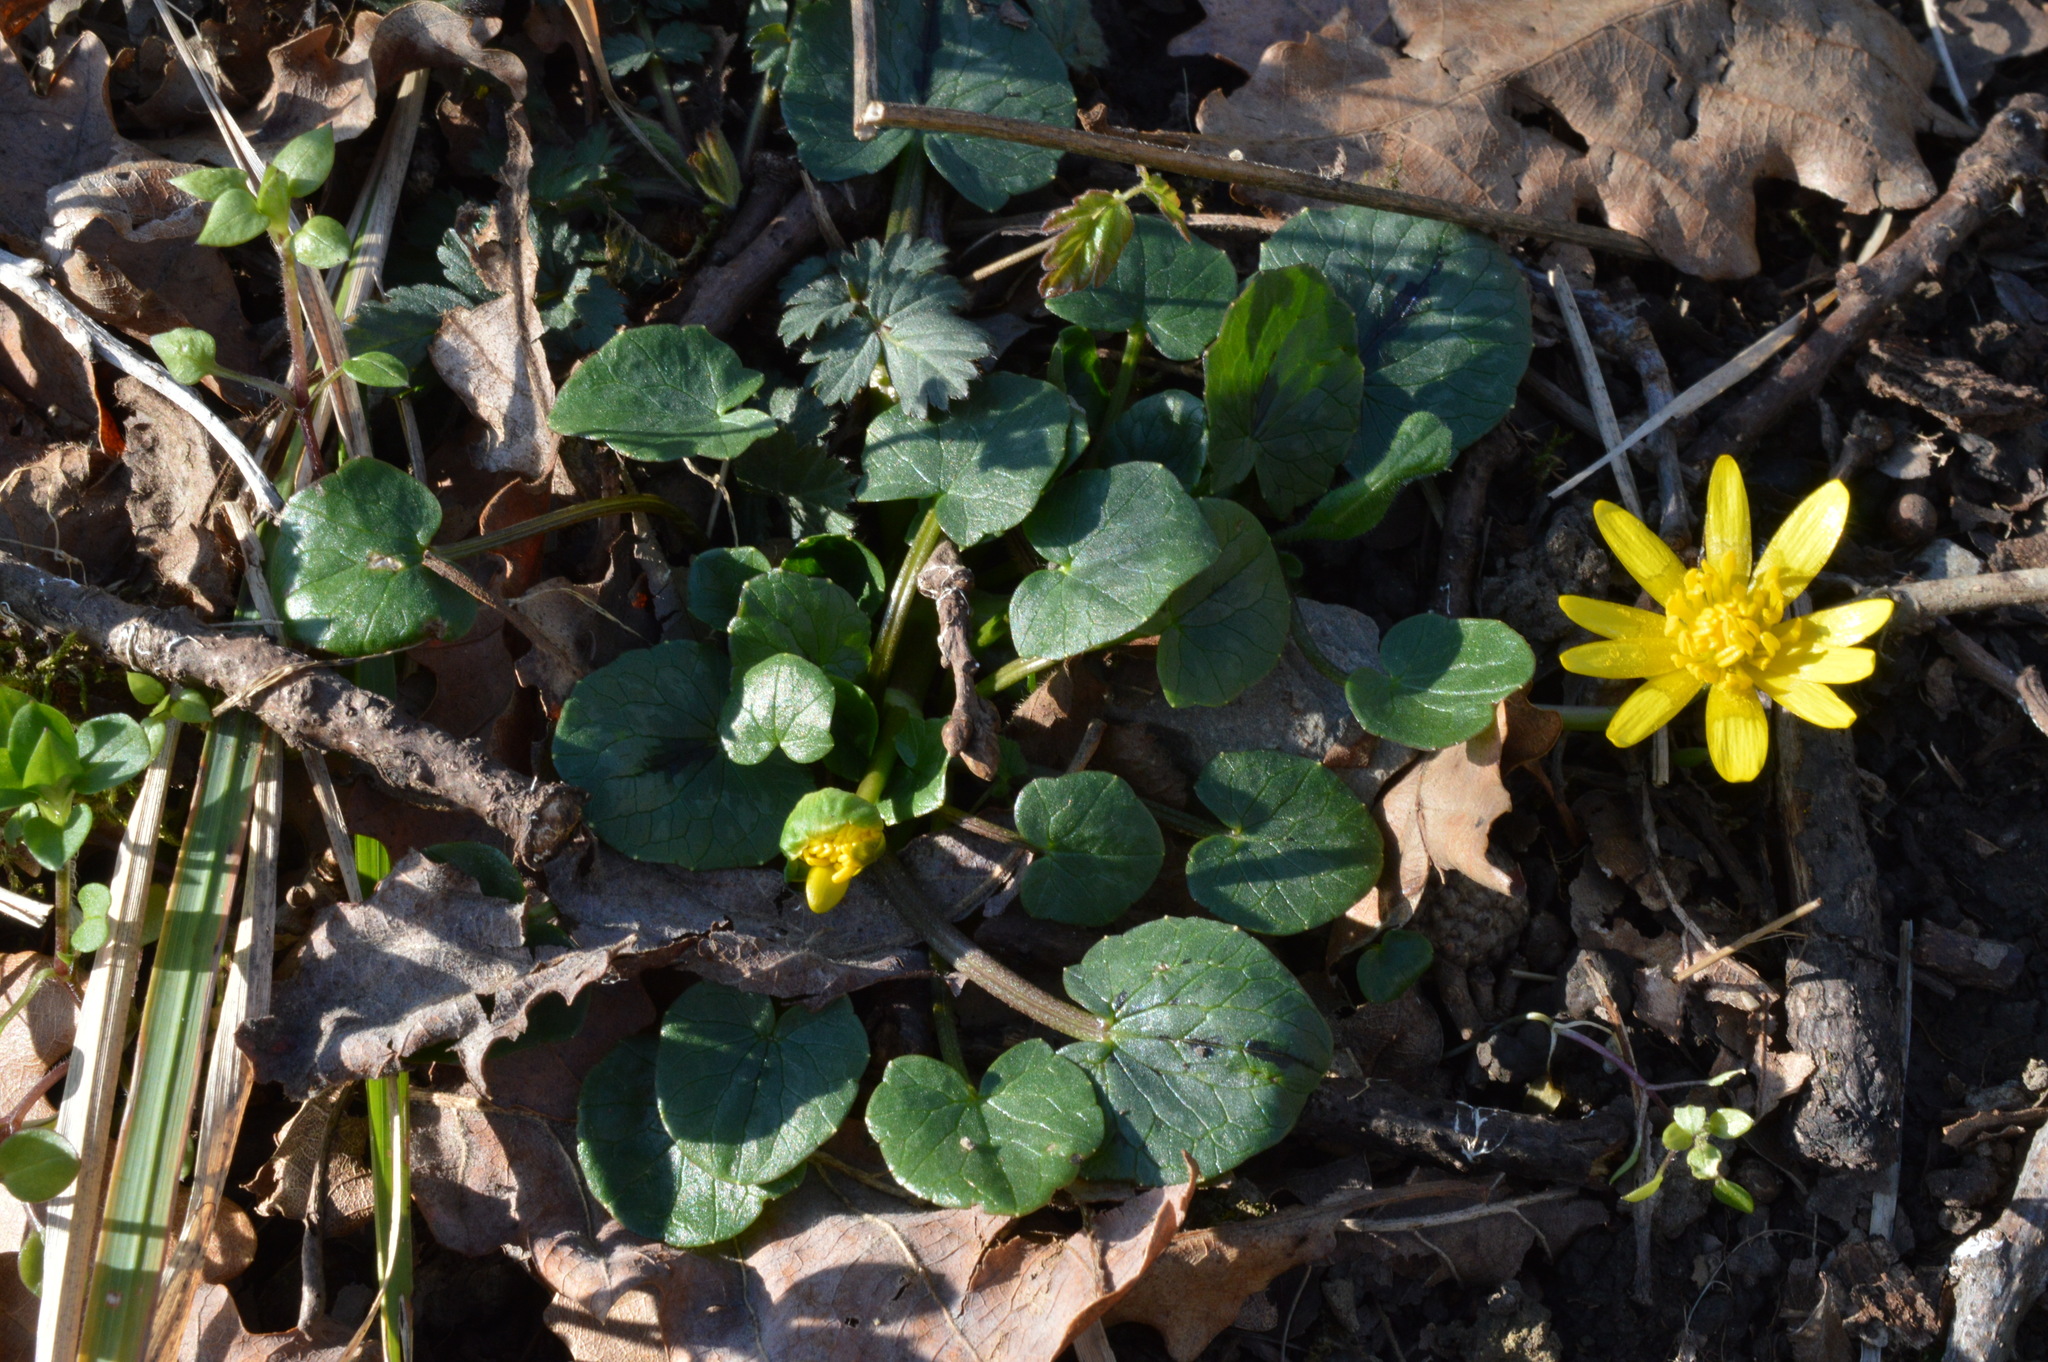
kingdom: Plantae
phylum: Tracheophyta
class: Magnoliopsida
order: Ranunculales
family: Ranunculaceae
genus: Ficaria
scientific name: Ficaria verna
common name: Lesser celandine
